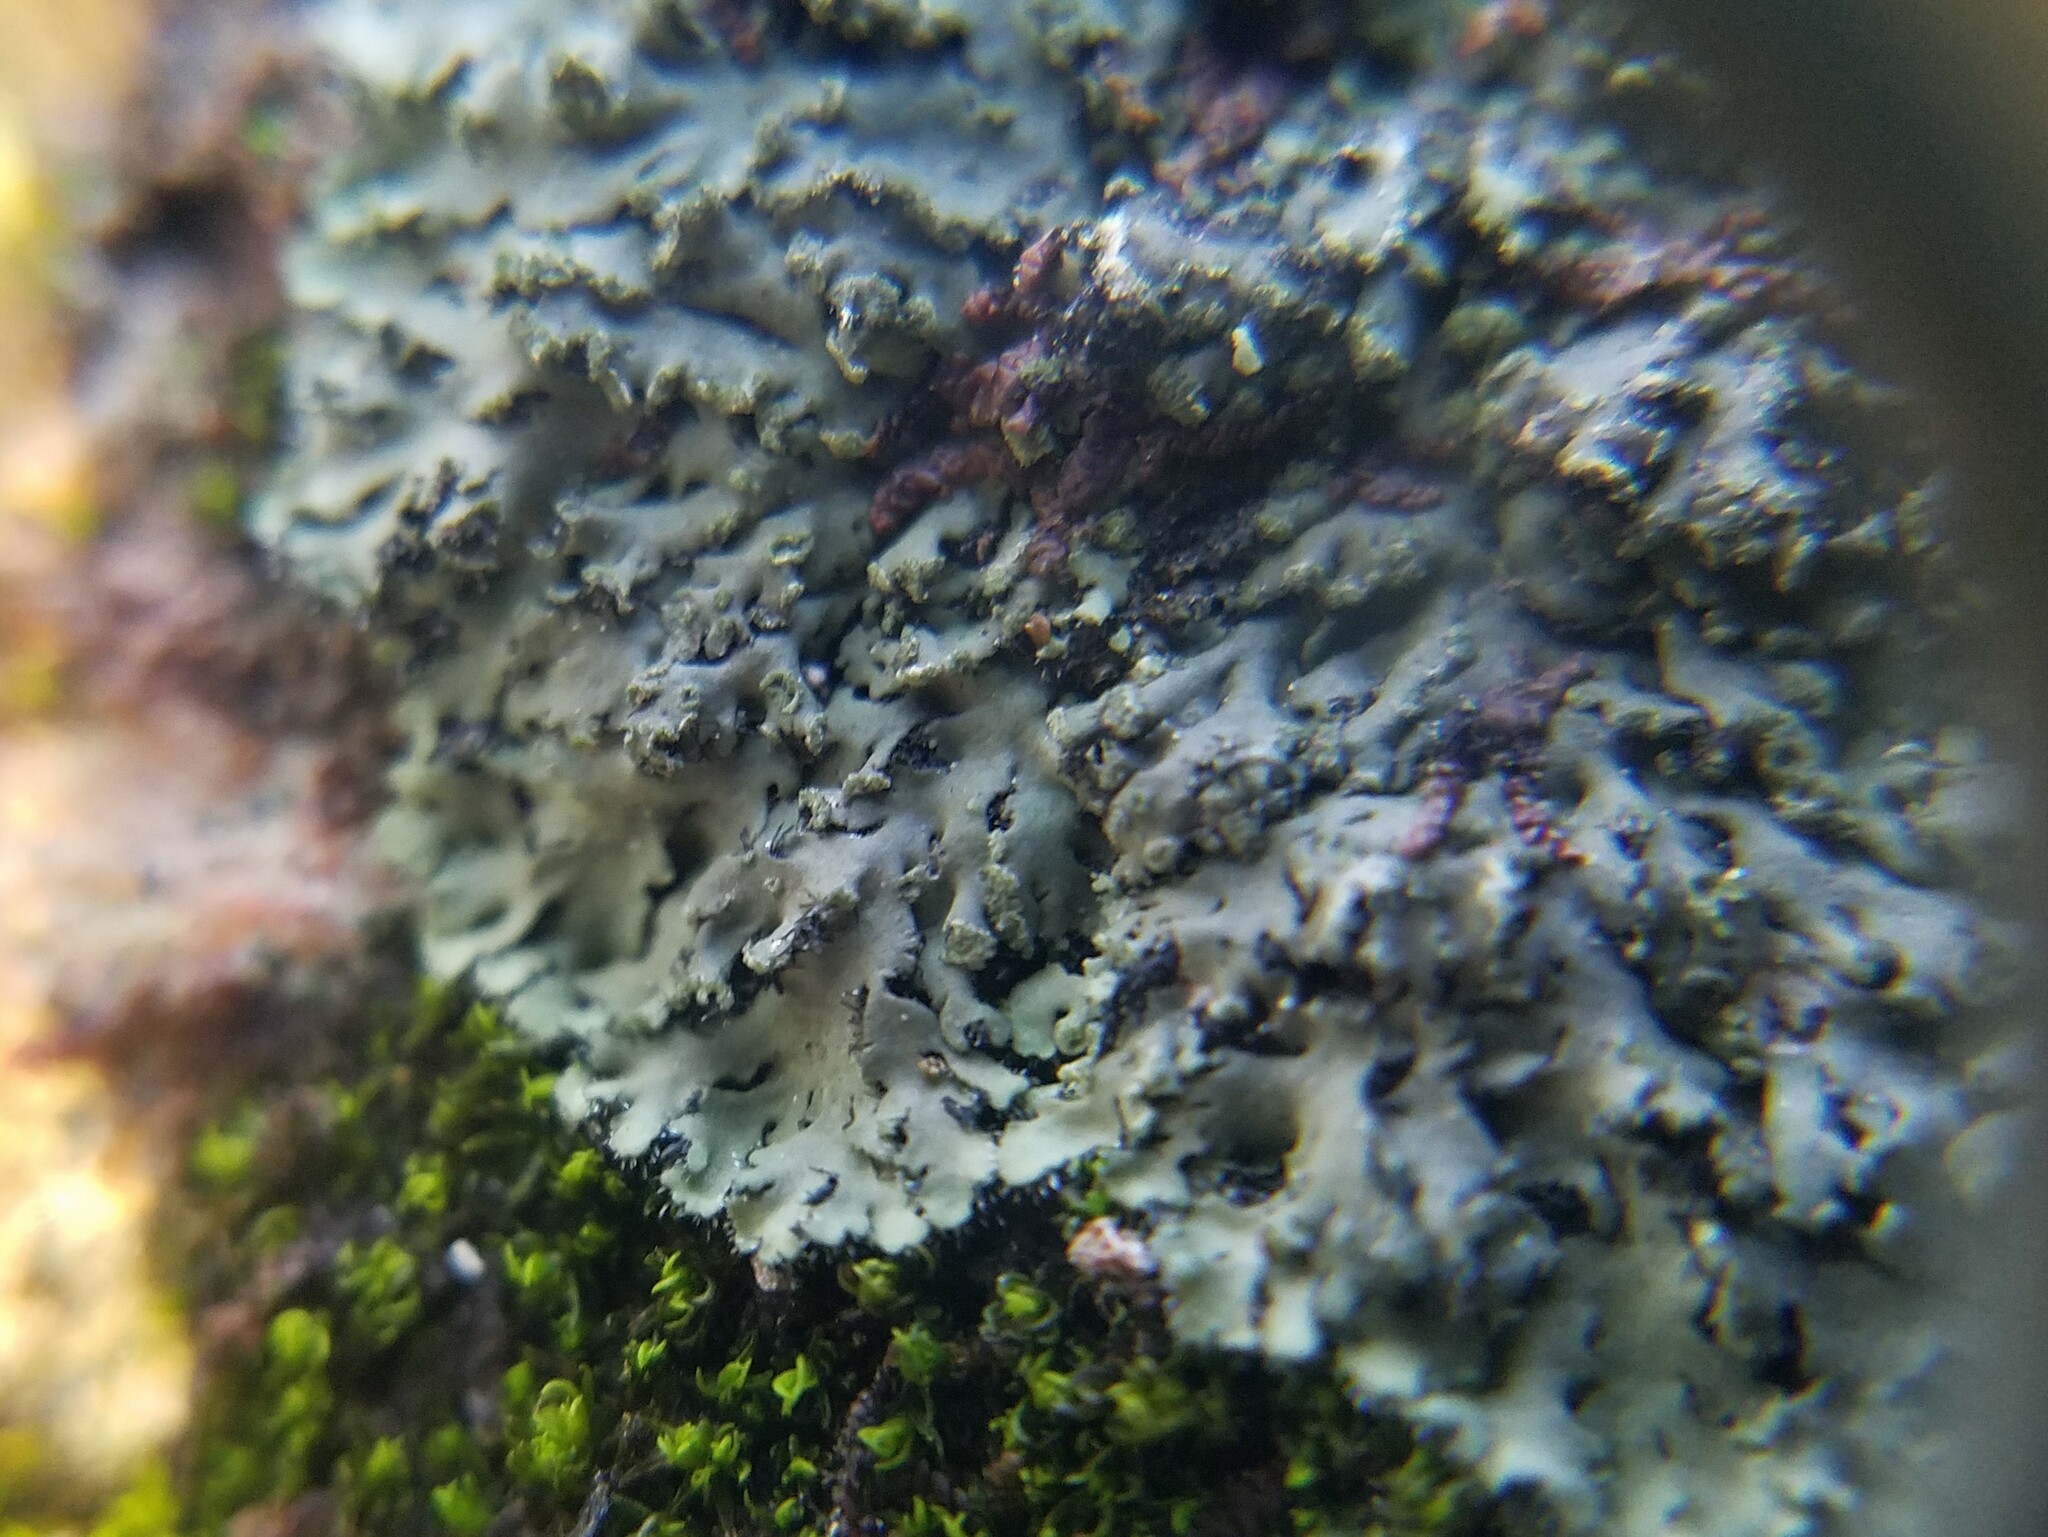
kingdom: Fungi
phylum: Ascomycota
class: Lecanoromycetes
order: Caliciales
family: Physciaceae
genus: Phaeophyscia
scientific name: Phaeophyscia rubropulchra
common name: Orange-cored shadow lichen
